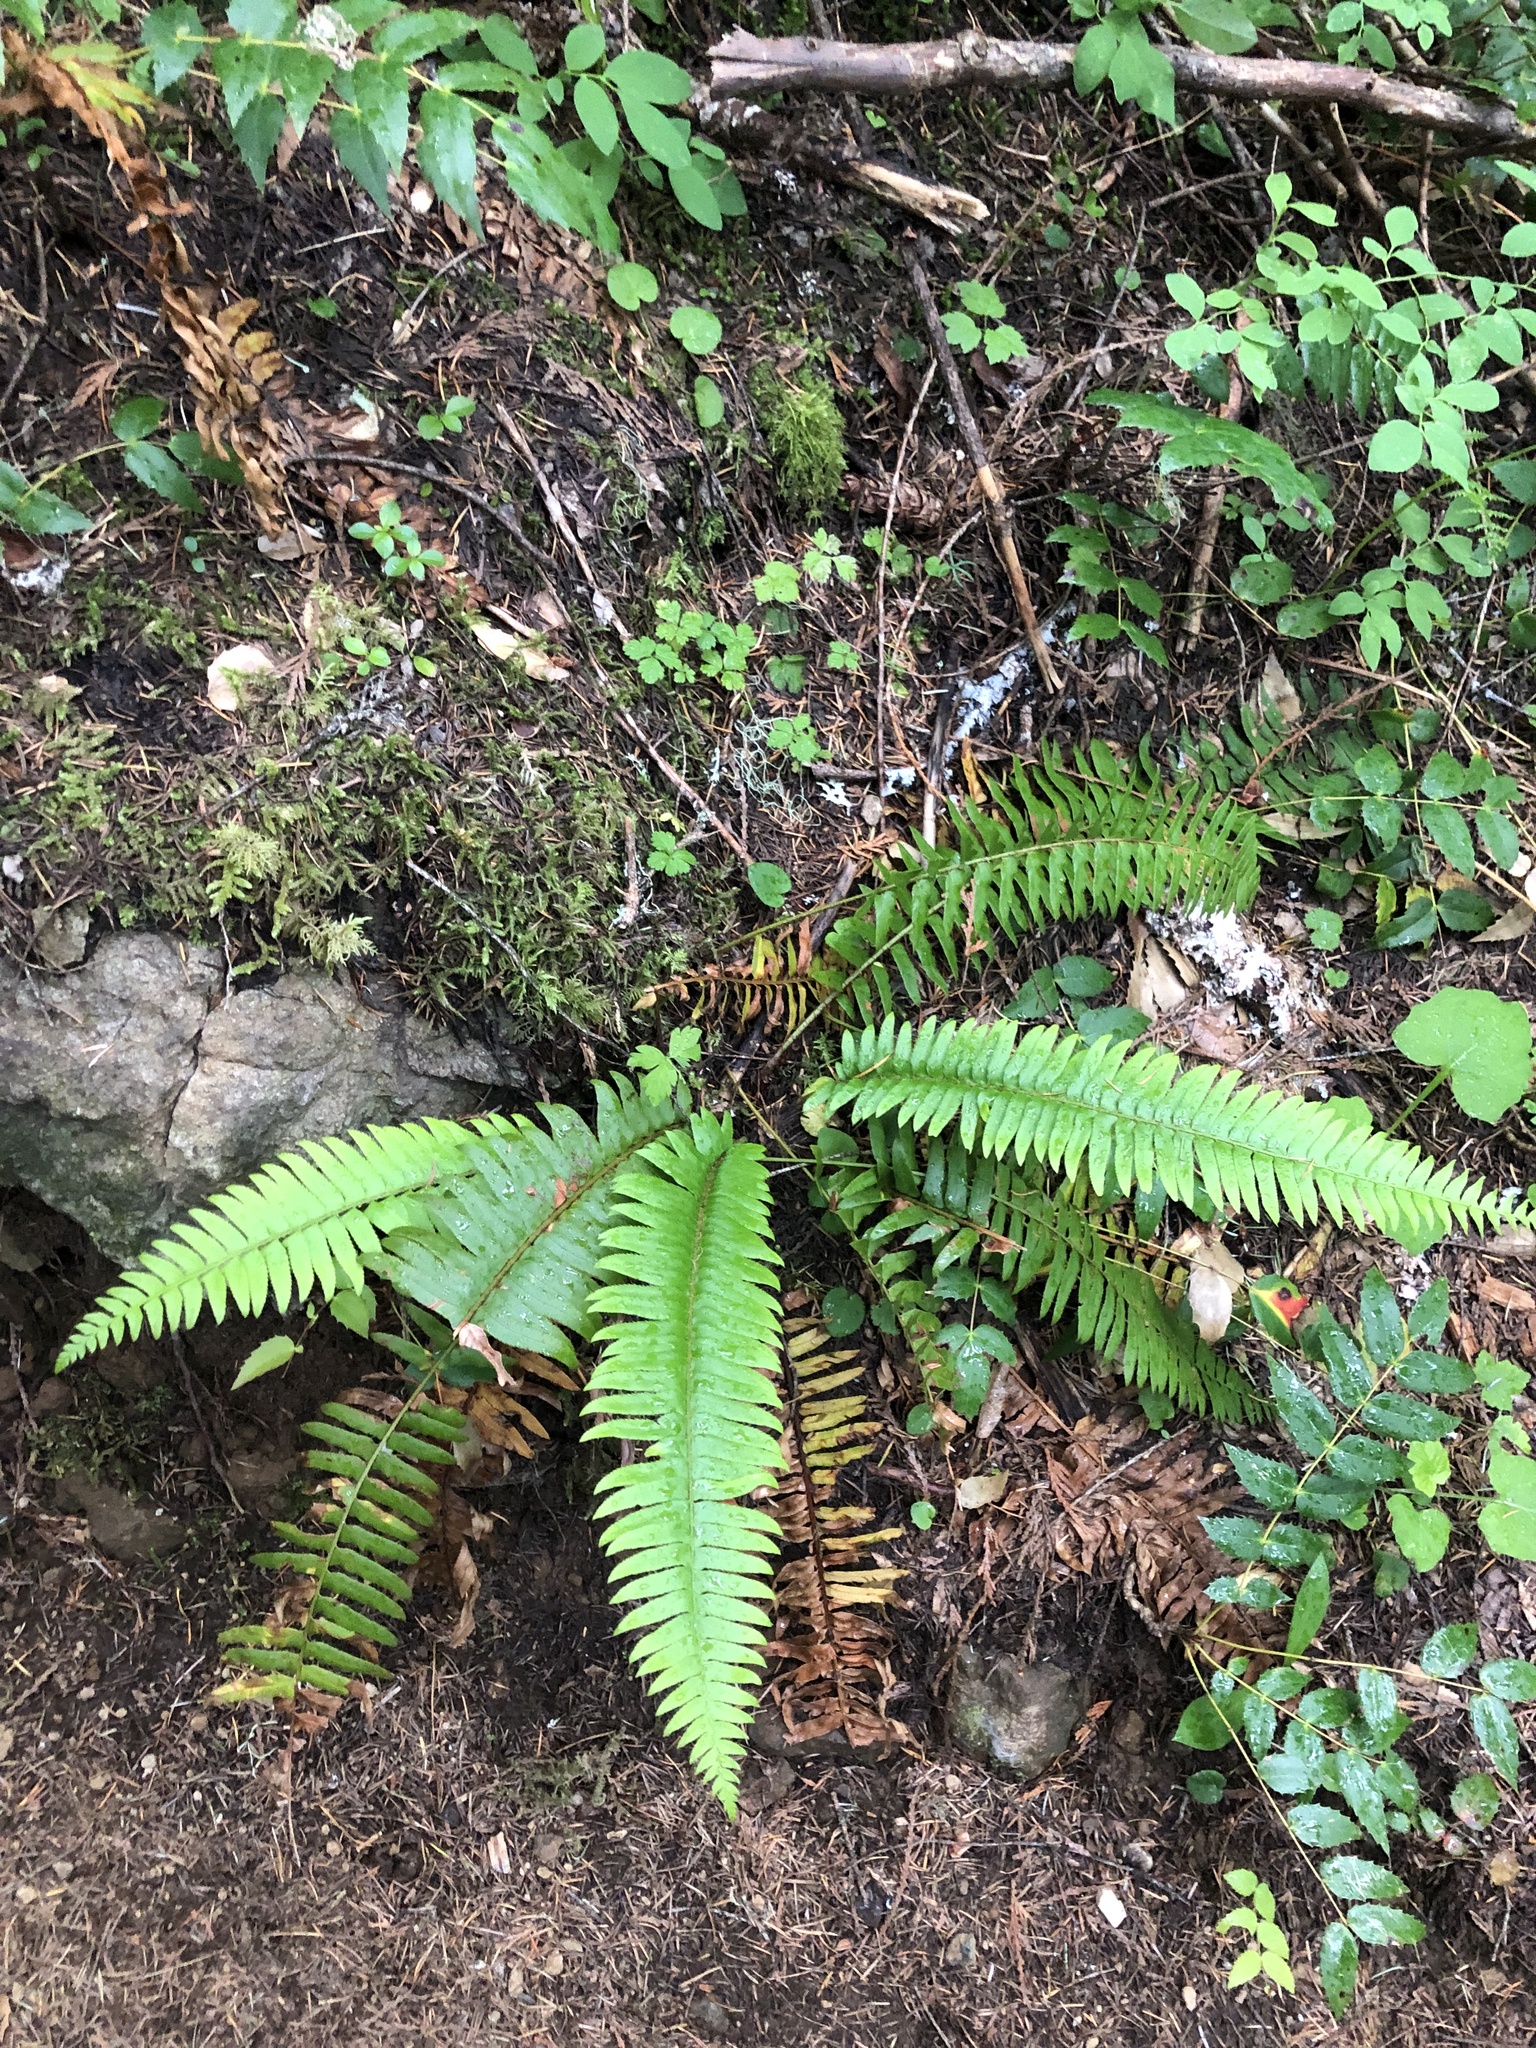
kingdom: Plantae
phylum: Tracheophyta
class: Polypodiopsida
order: Polypodiales
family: Dryopteridaceae
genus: Polystichum
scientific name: Polystichum munitum
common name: Western sword-fern
